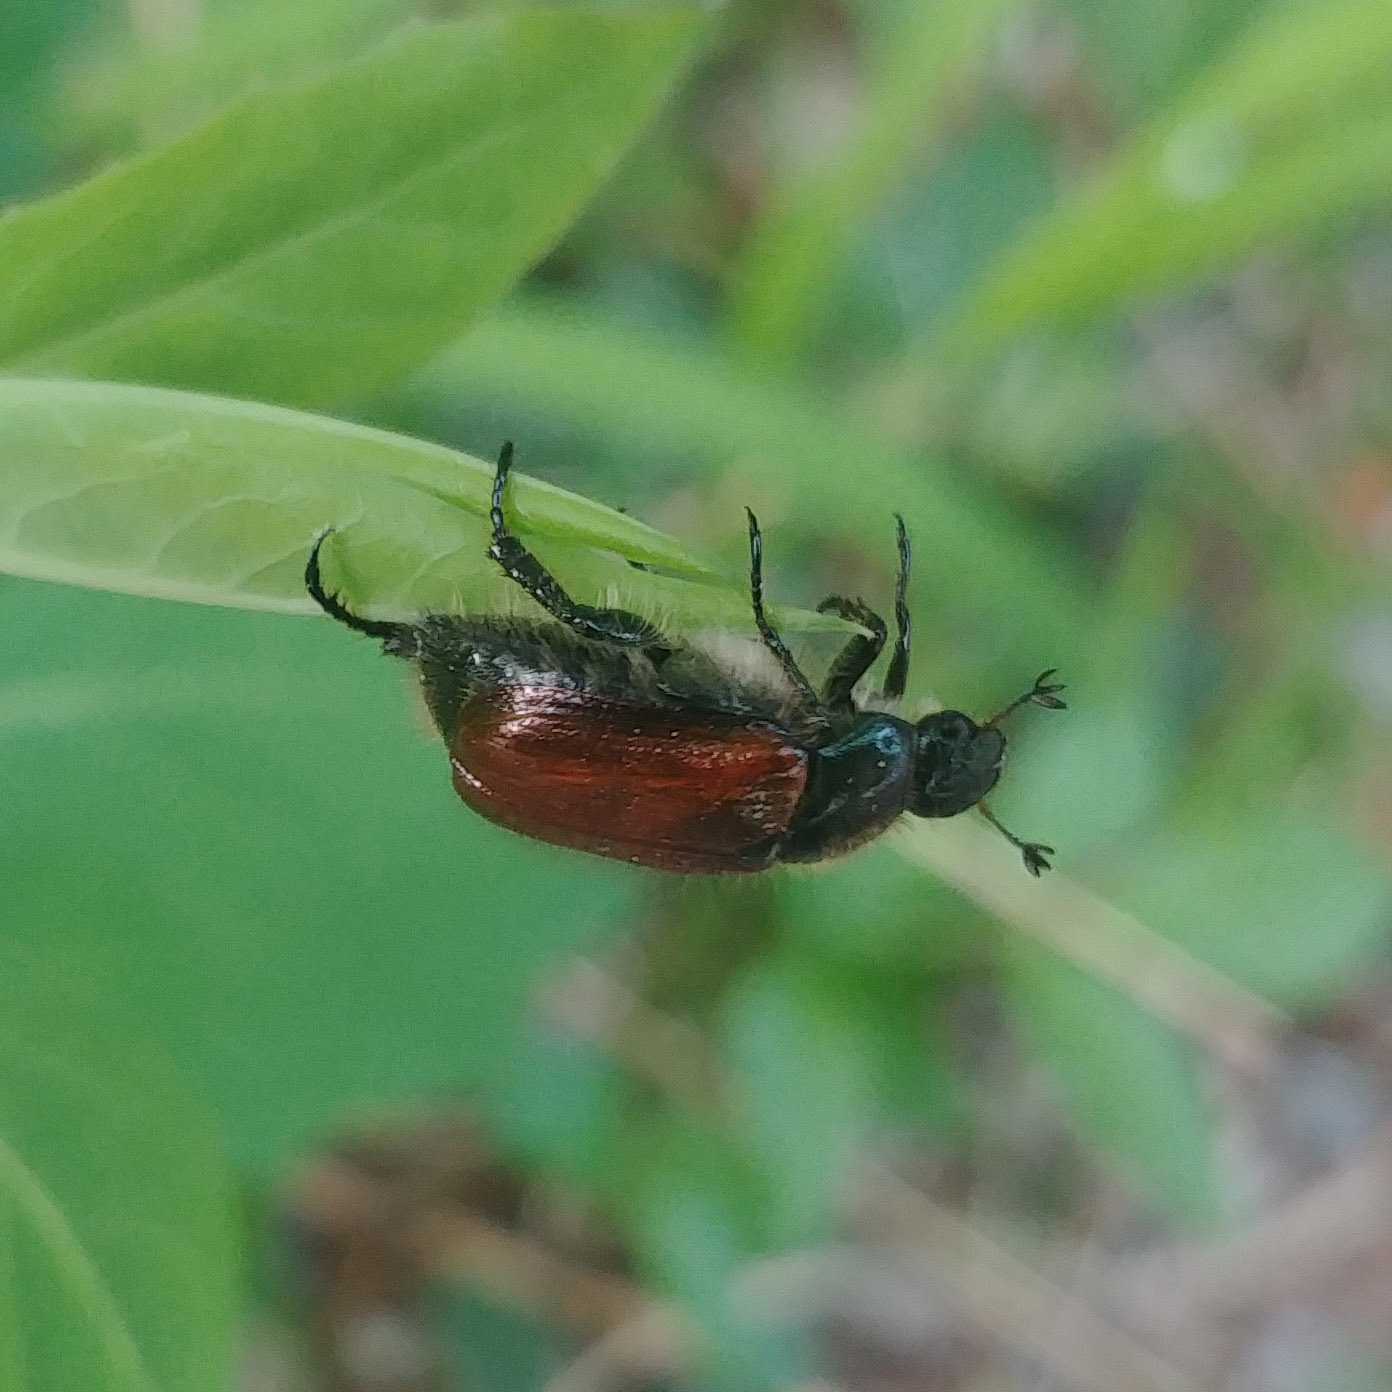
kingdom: Animalia
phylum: Arthropoda
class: Insecta
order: Coleoptera
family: Scarabaeidae
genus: Phyllopertha
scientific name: Phyllopertha horticola
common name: Garden chafer
